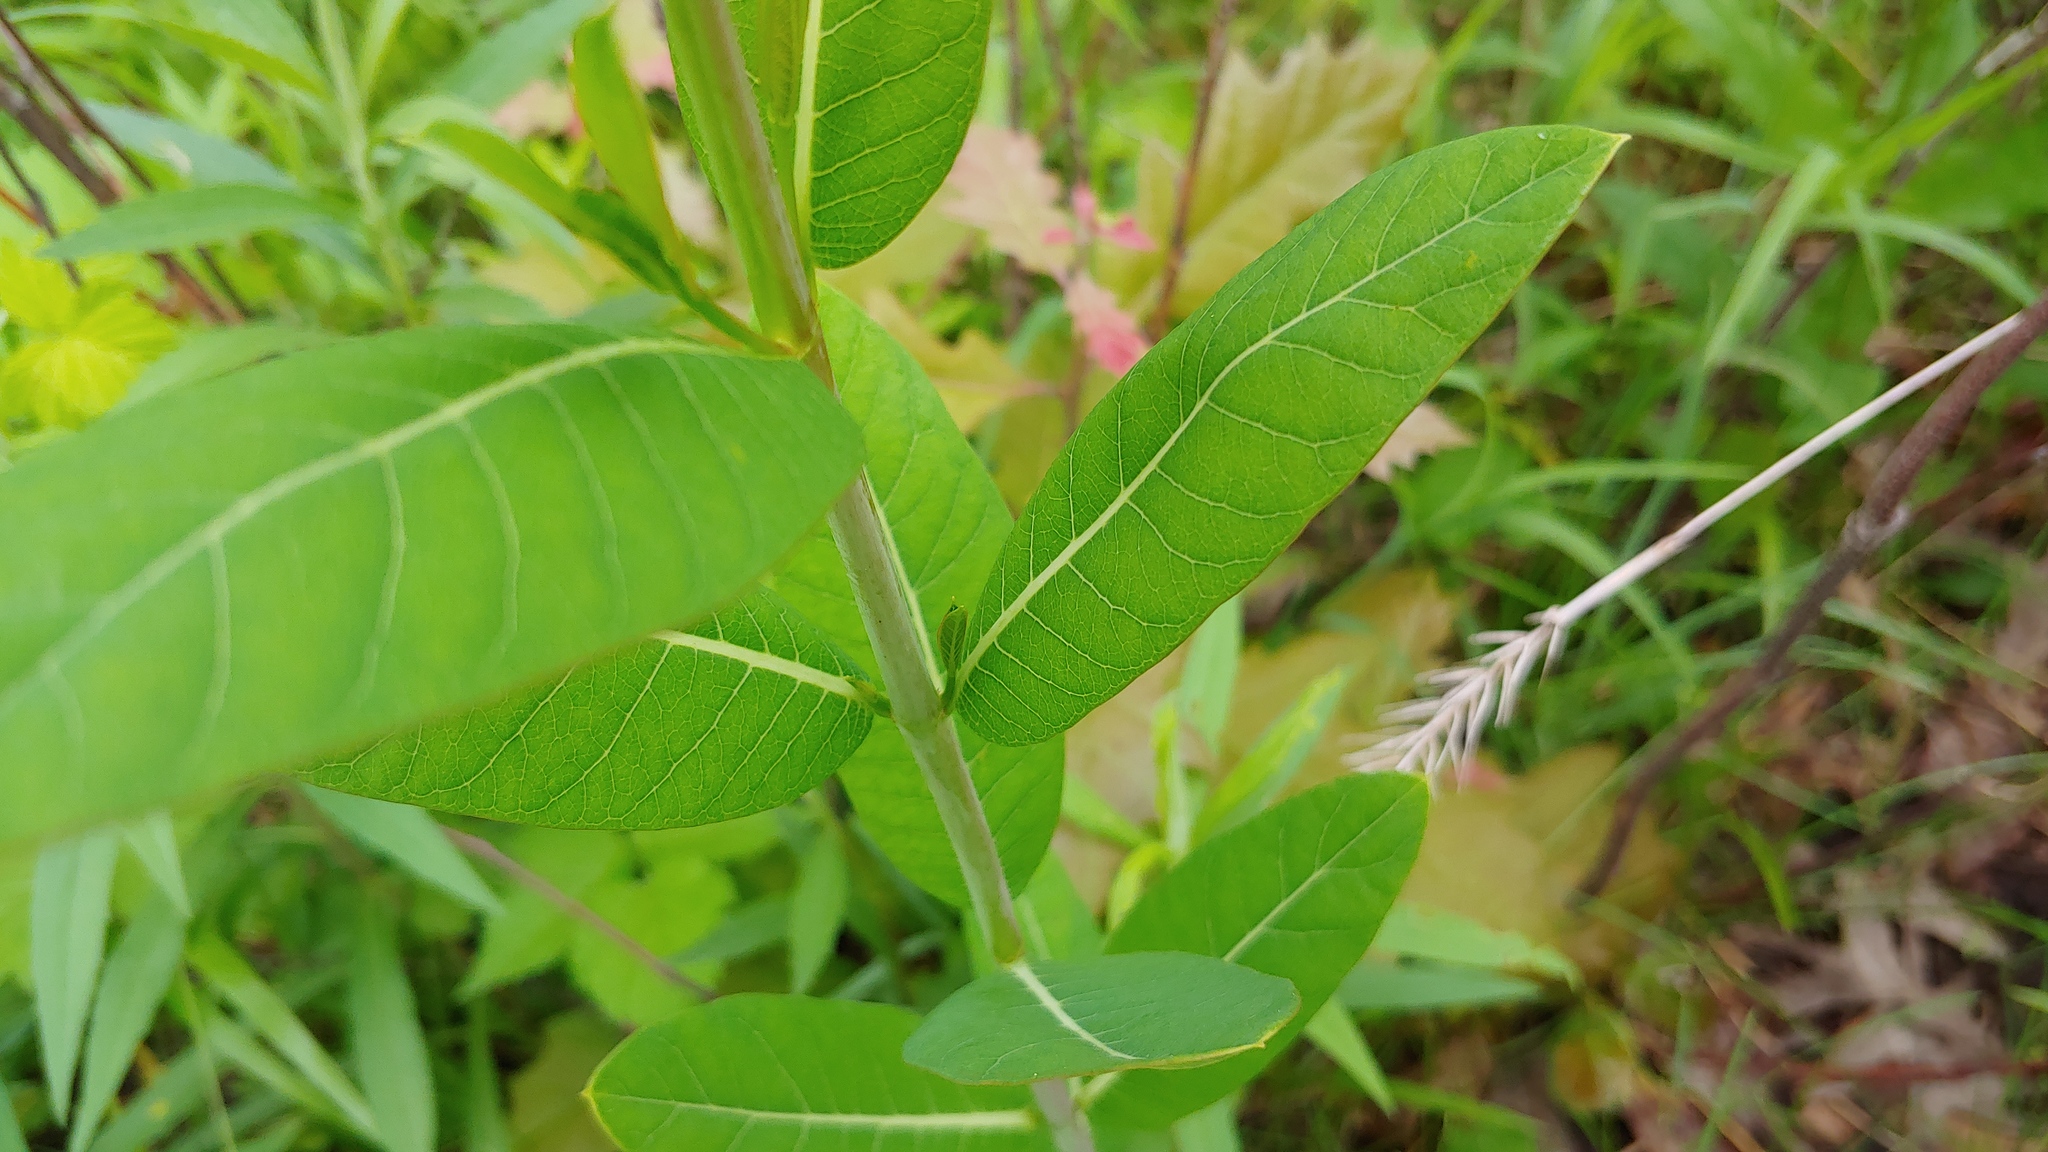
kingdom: Plantae
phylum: Tracheophyta
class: Magnoliopsida
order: Gentianales
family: Apocynaceae
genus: Apocynum
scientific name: Apocynum cannabinum
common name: Hemp dogbane
